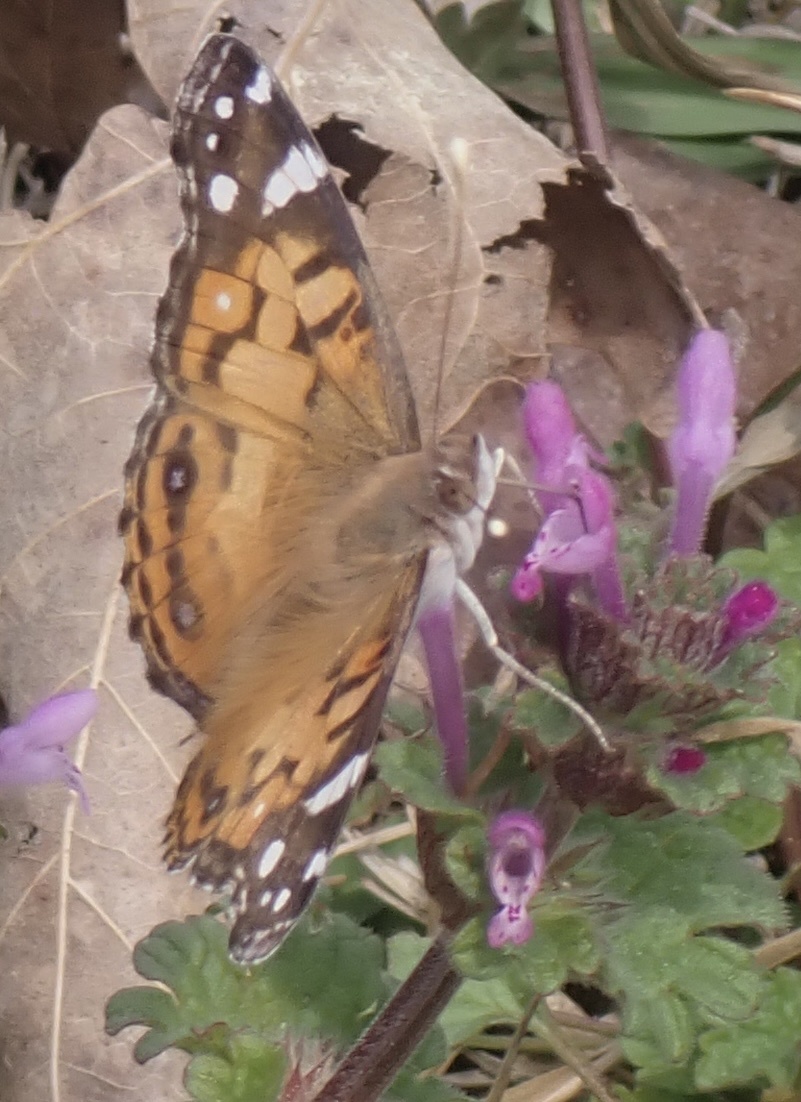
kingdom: Animalia
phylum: Arthropoda
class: Insecta
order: Lepidoptera
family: Nymphalidae
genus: Vanessa
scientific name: Vanessa virginiensis
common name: American lady
